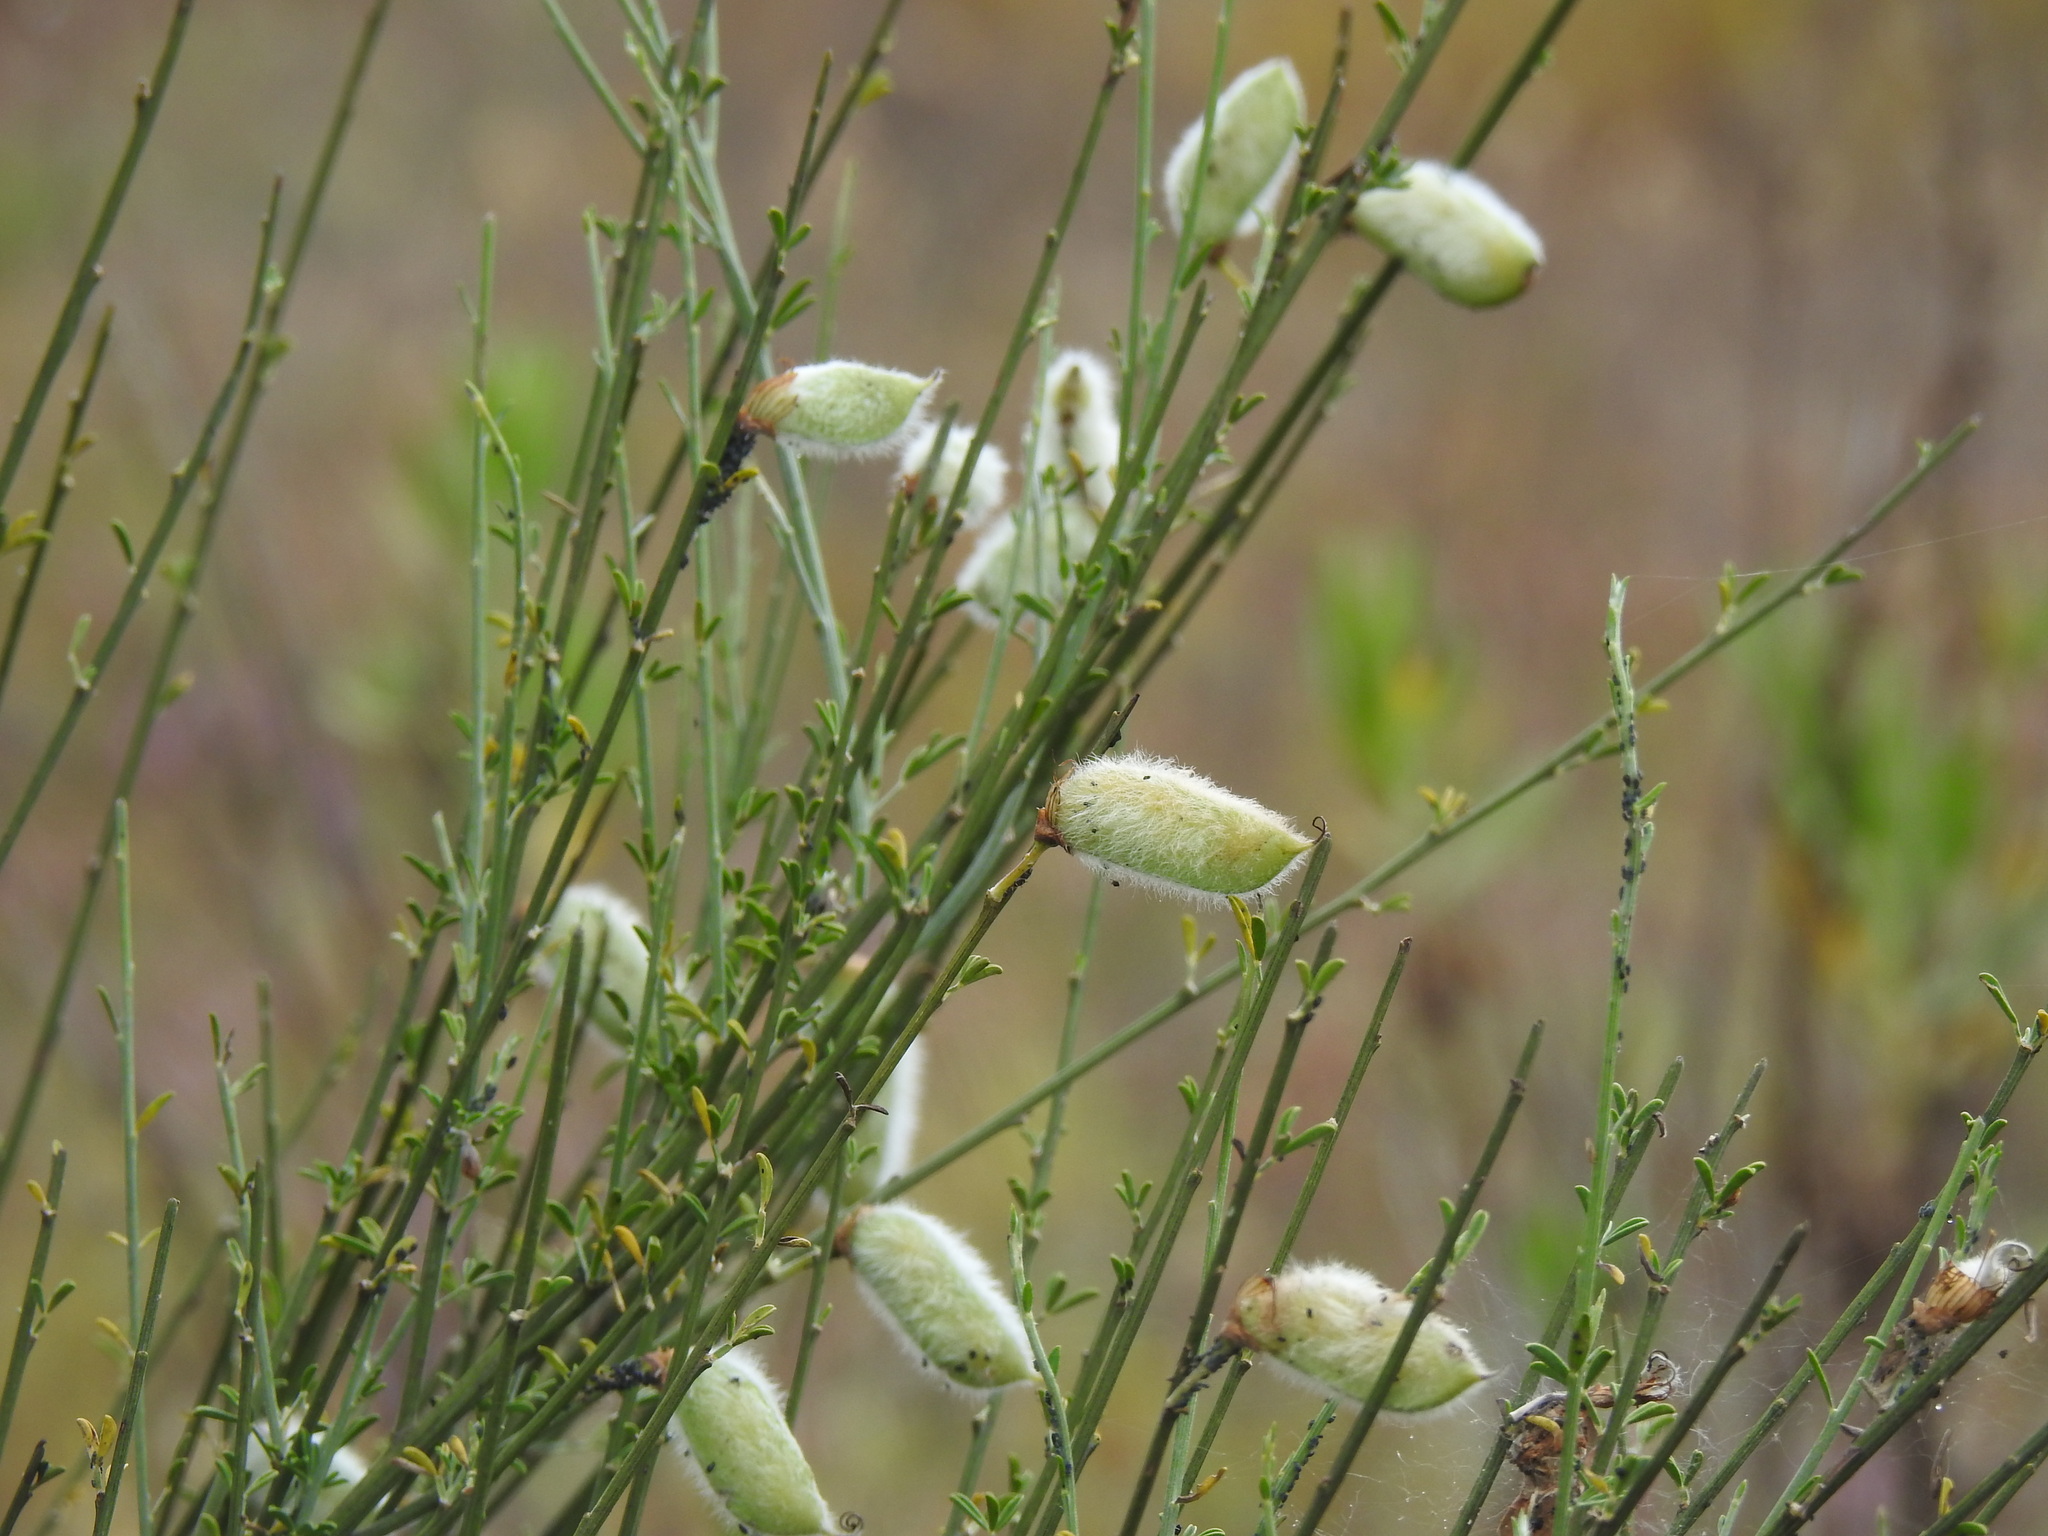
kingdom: Plantae
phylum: Tracheophyta
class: Magnoliopsida
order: Fabales
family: Fabaceae
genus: Cytisus
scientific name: Cytisus striatus
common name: Hairy-fruited broom
